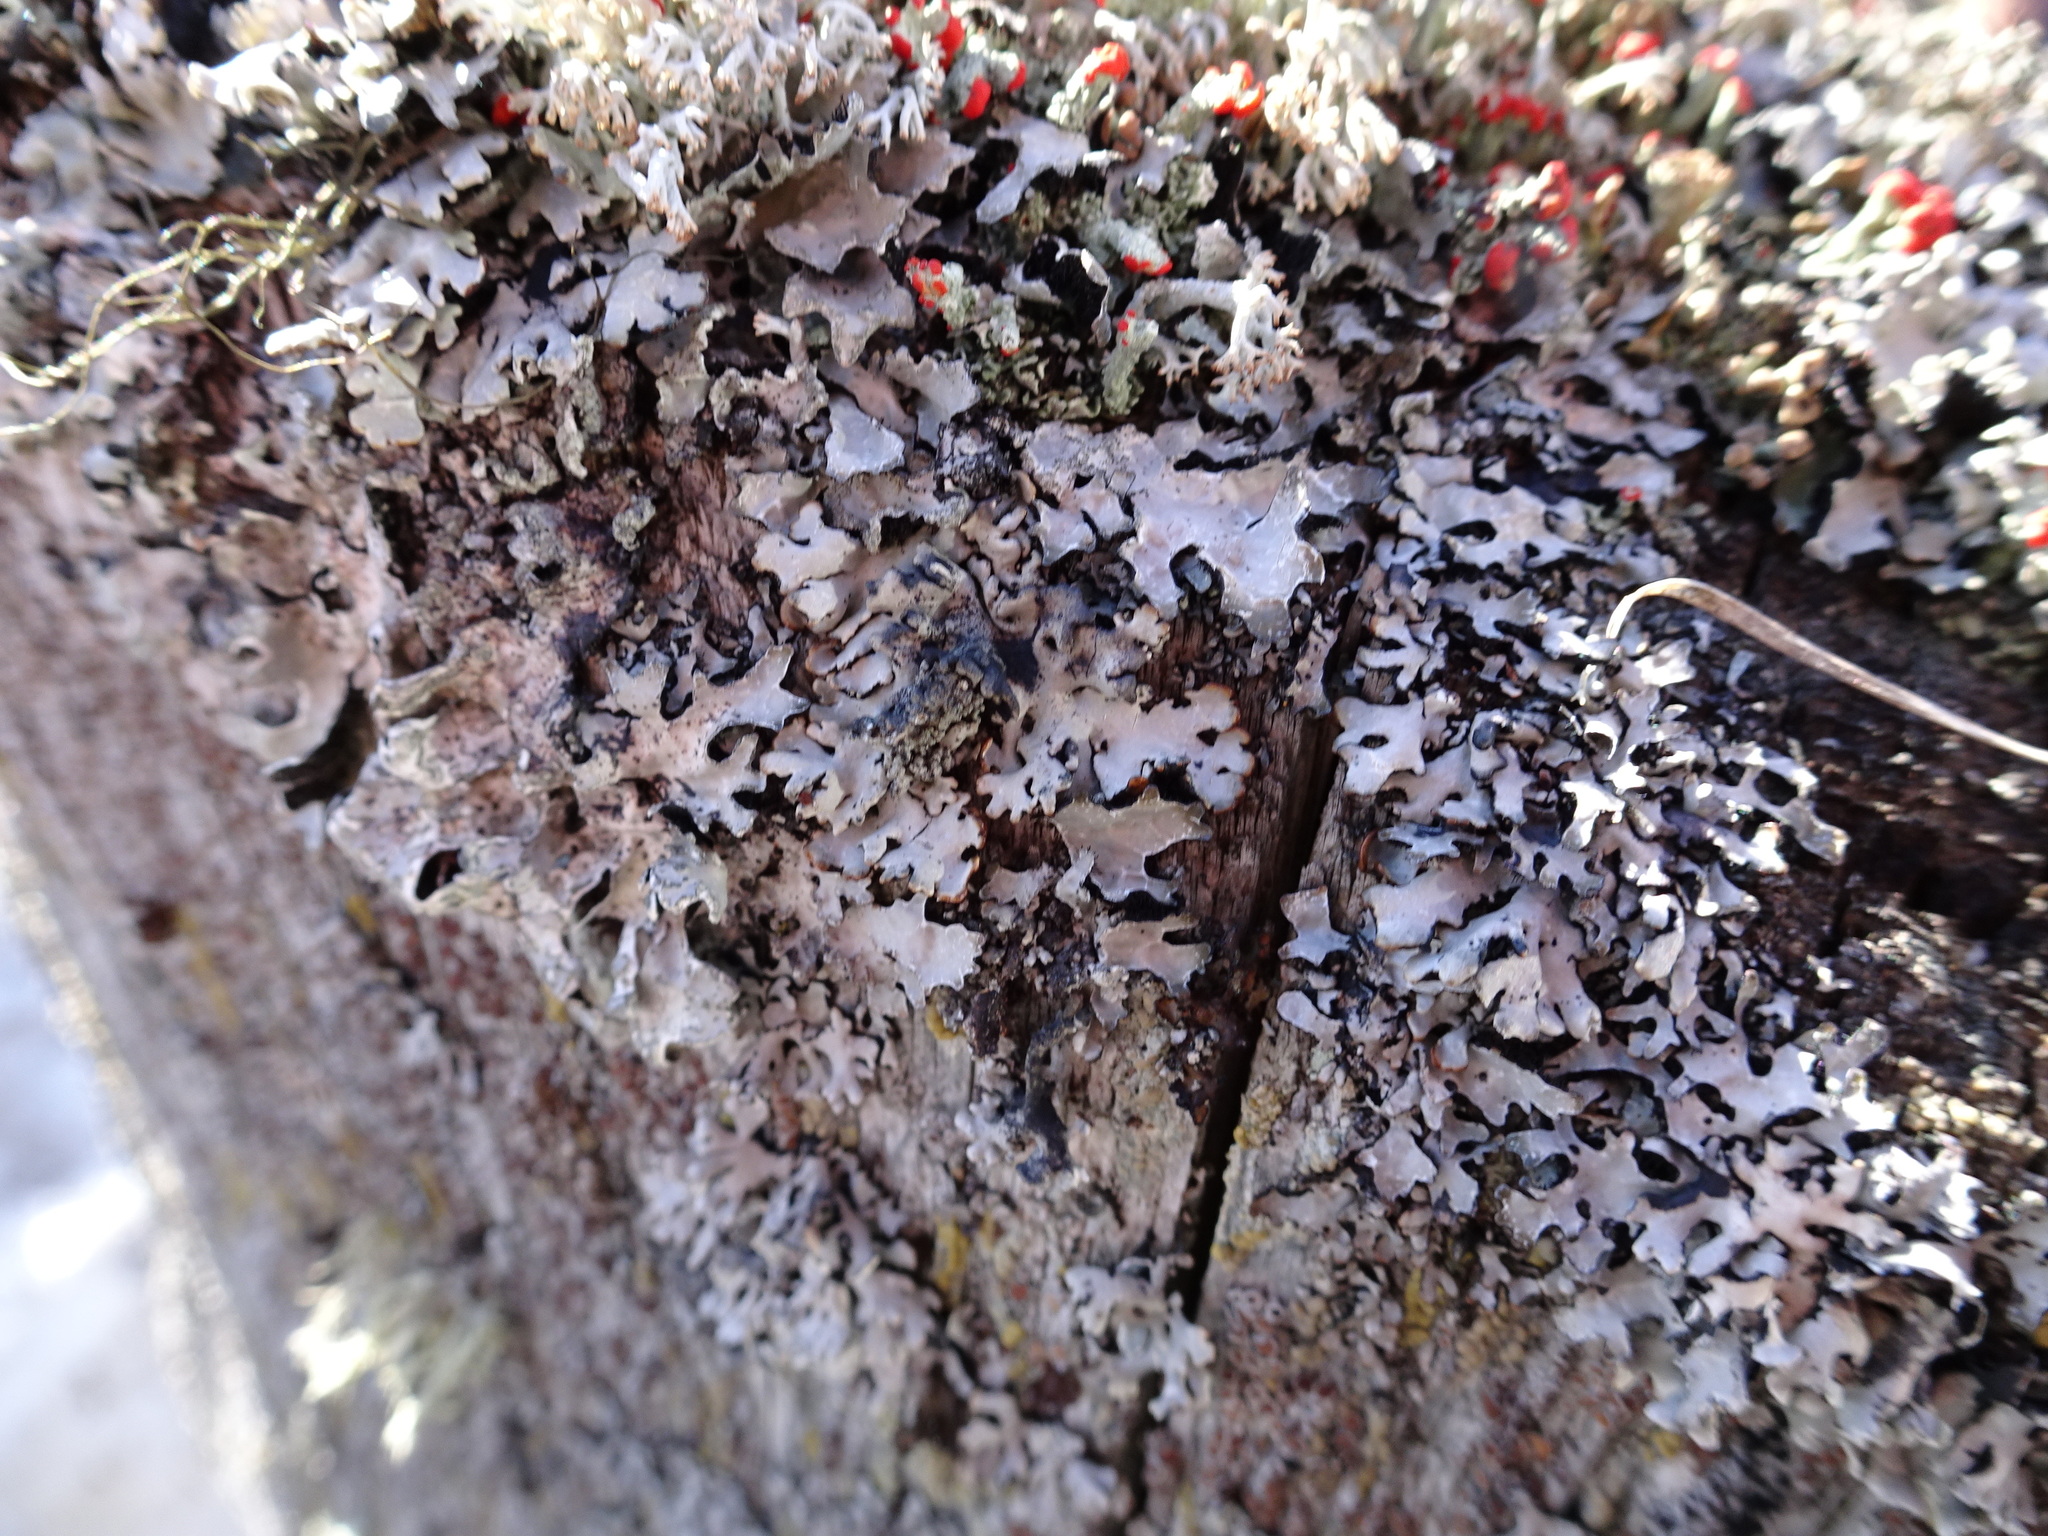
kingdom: Fungi
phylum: Ascomycota
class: Lecanoromycetes
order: Lecanorales
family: Parmeliaceae
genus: Hypogymnia
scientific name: Hypogymnia physodes
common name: Dark crottle
